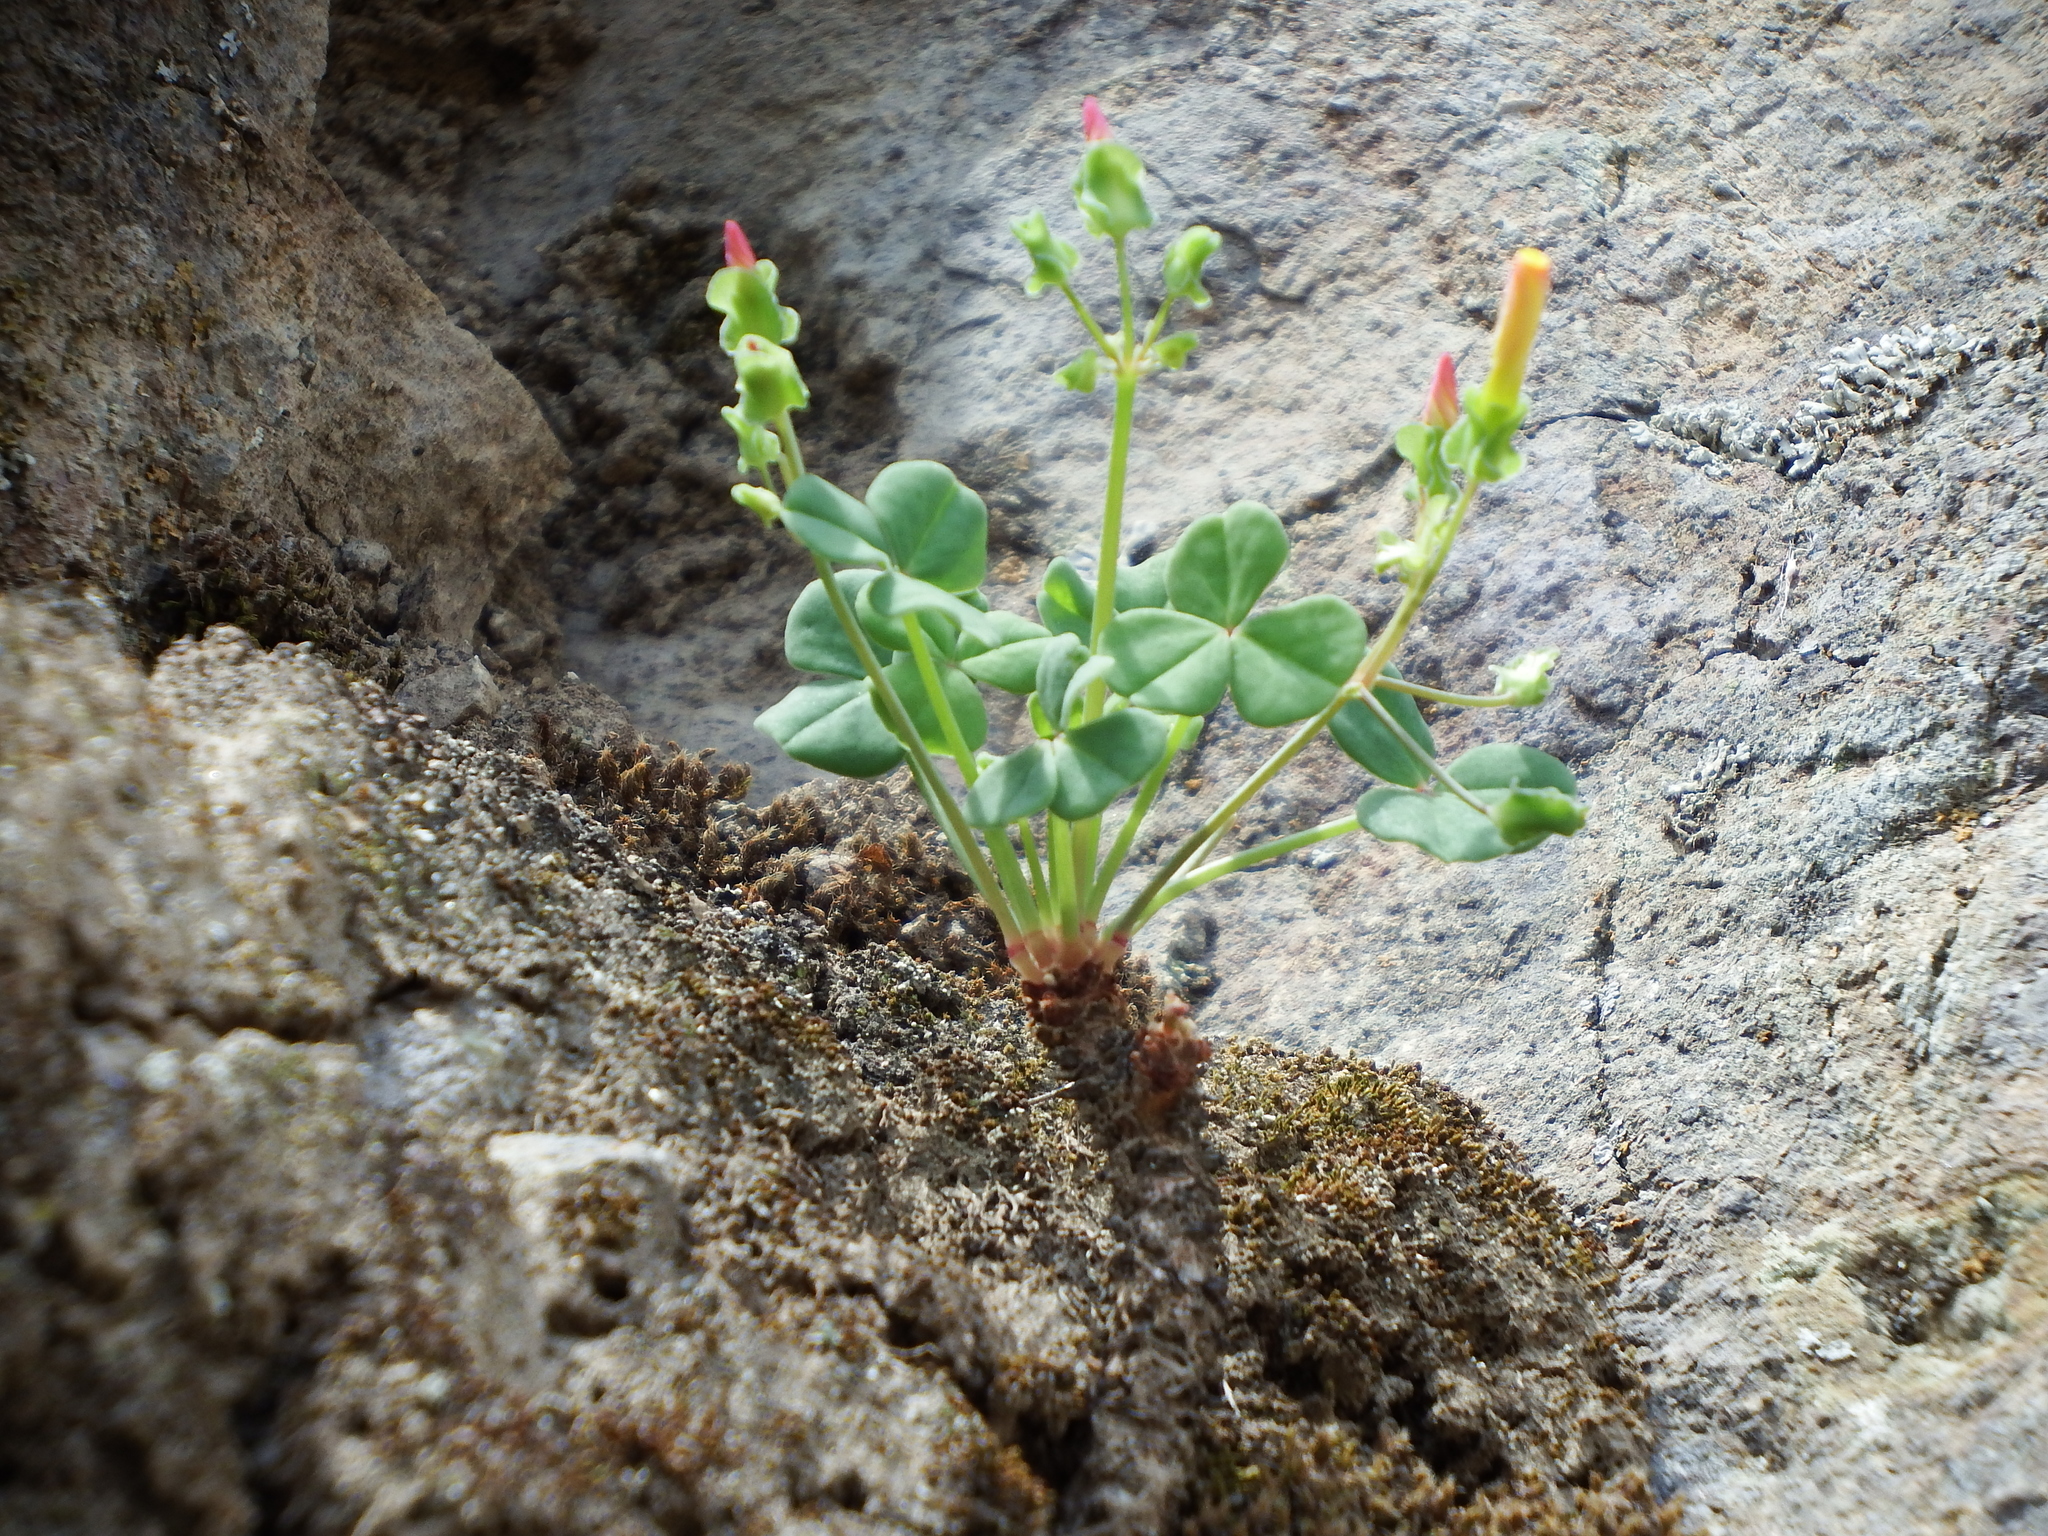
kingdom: Plantae
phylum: Tracheophyta
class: Magnoliopsida
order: Oxalidales
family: Oxalidaceae
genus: Oxalis
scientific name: Oxalis megalorrhiza
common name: Fleshy yellow-sorrel
